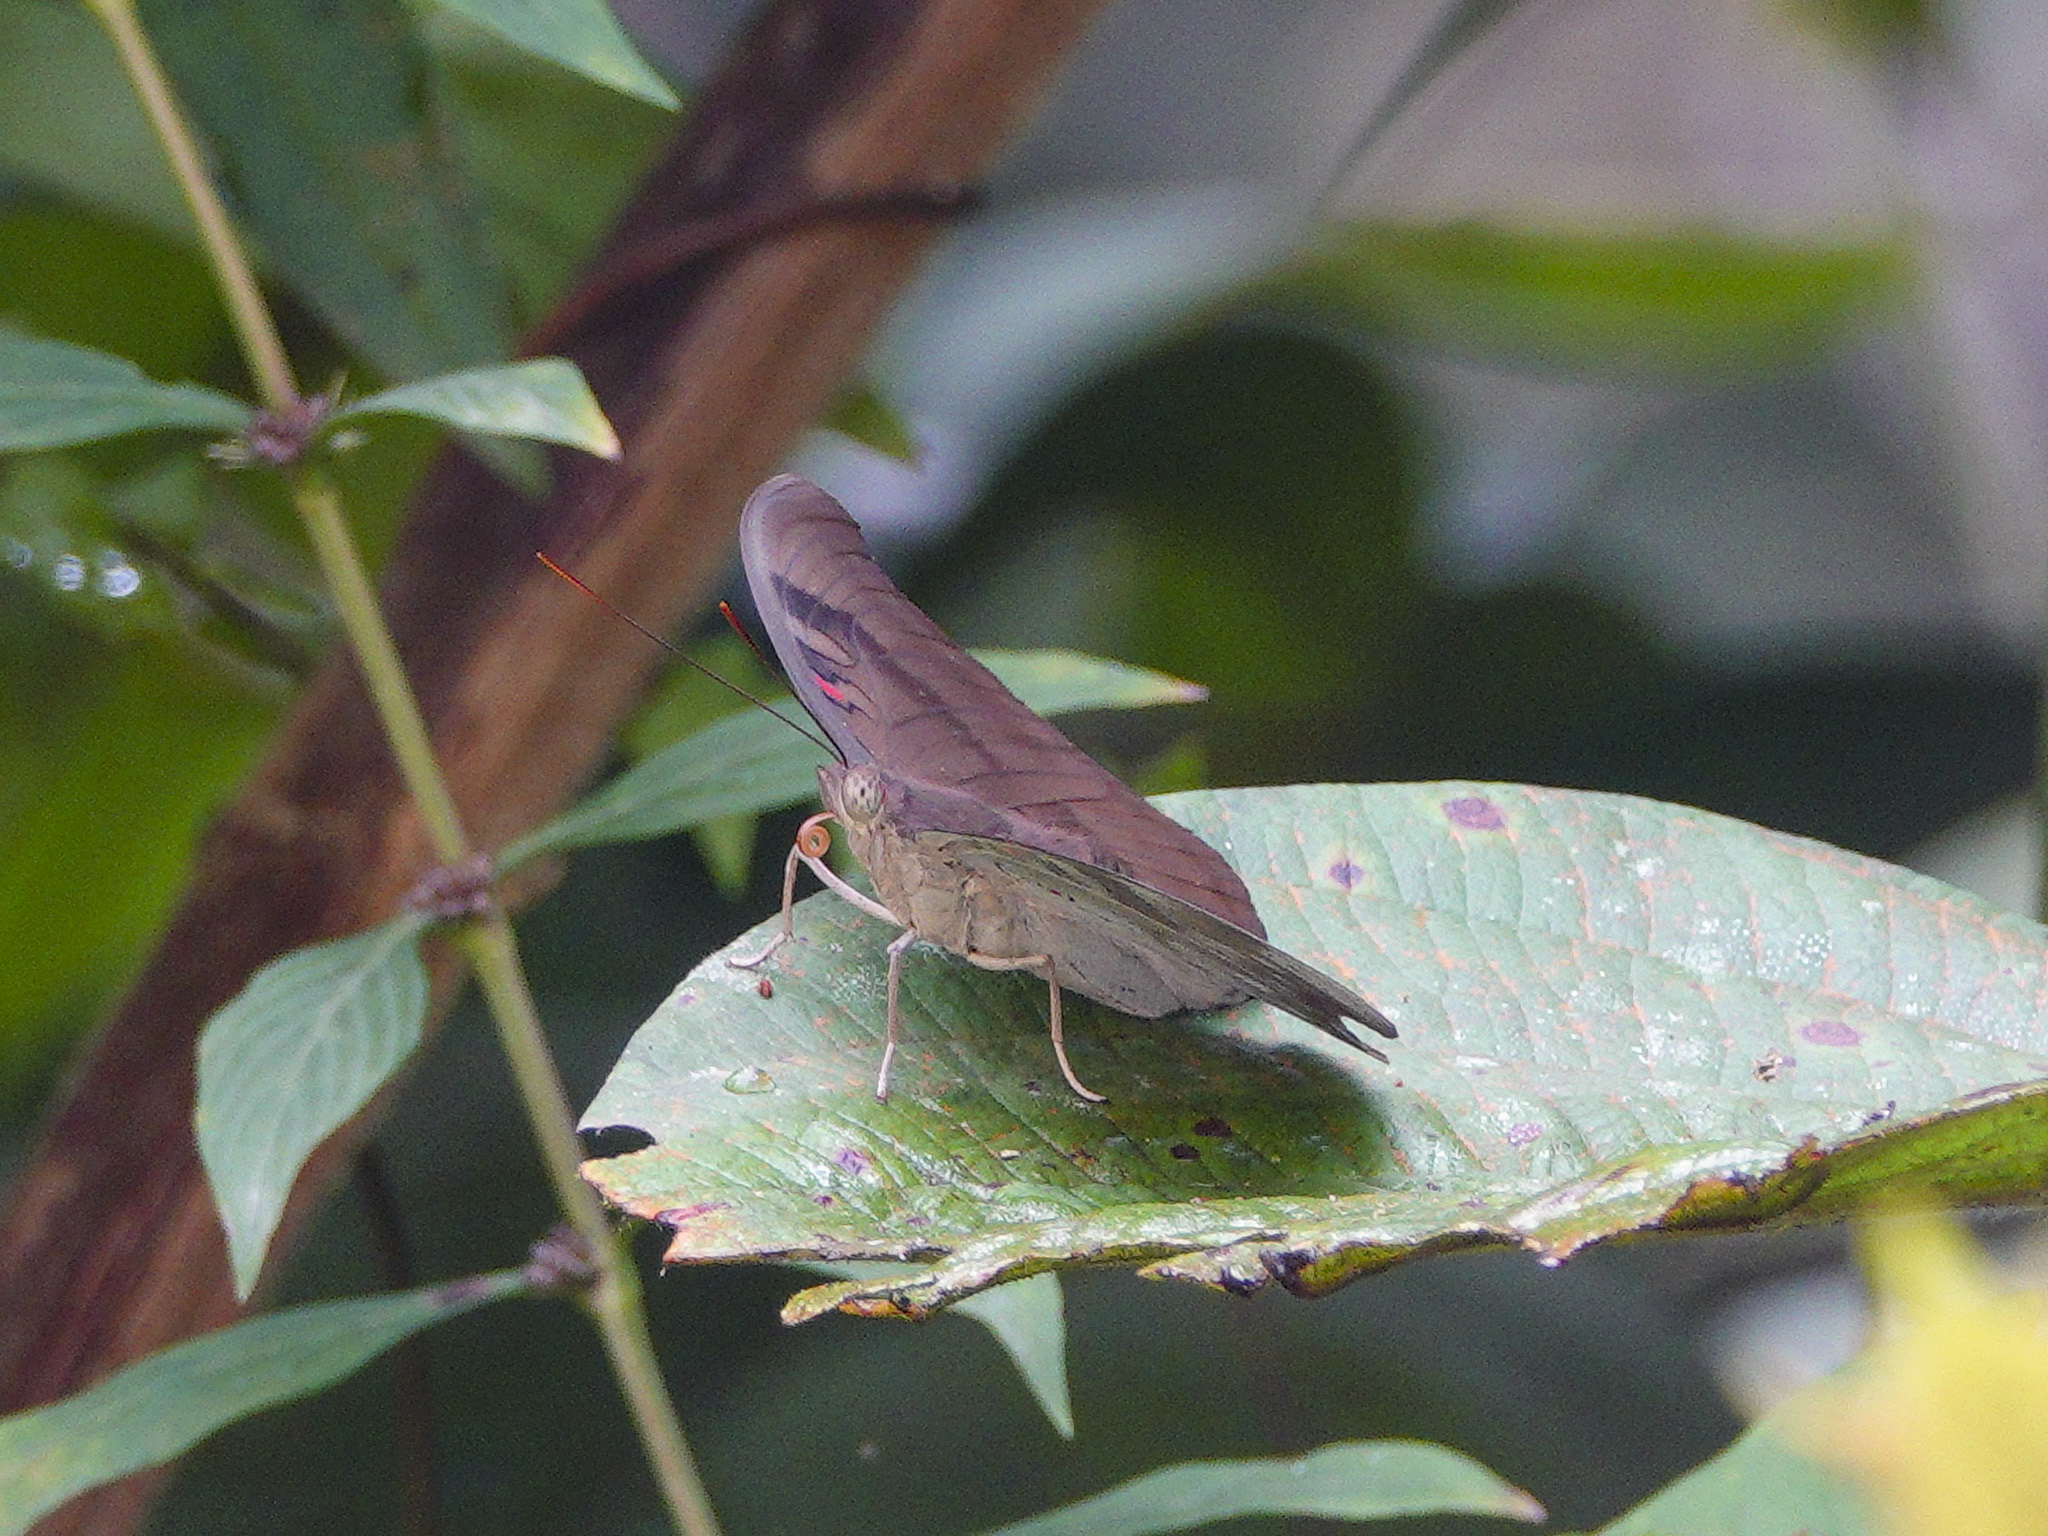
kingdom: Animalia
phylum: Arthropoda
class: Insecta
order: Lepidoptera
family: Nymphalidae
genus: Euthalia
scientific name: Euthalia Dophla evelina
